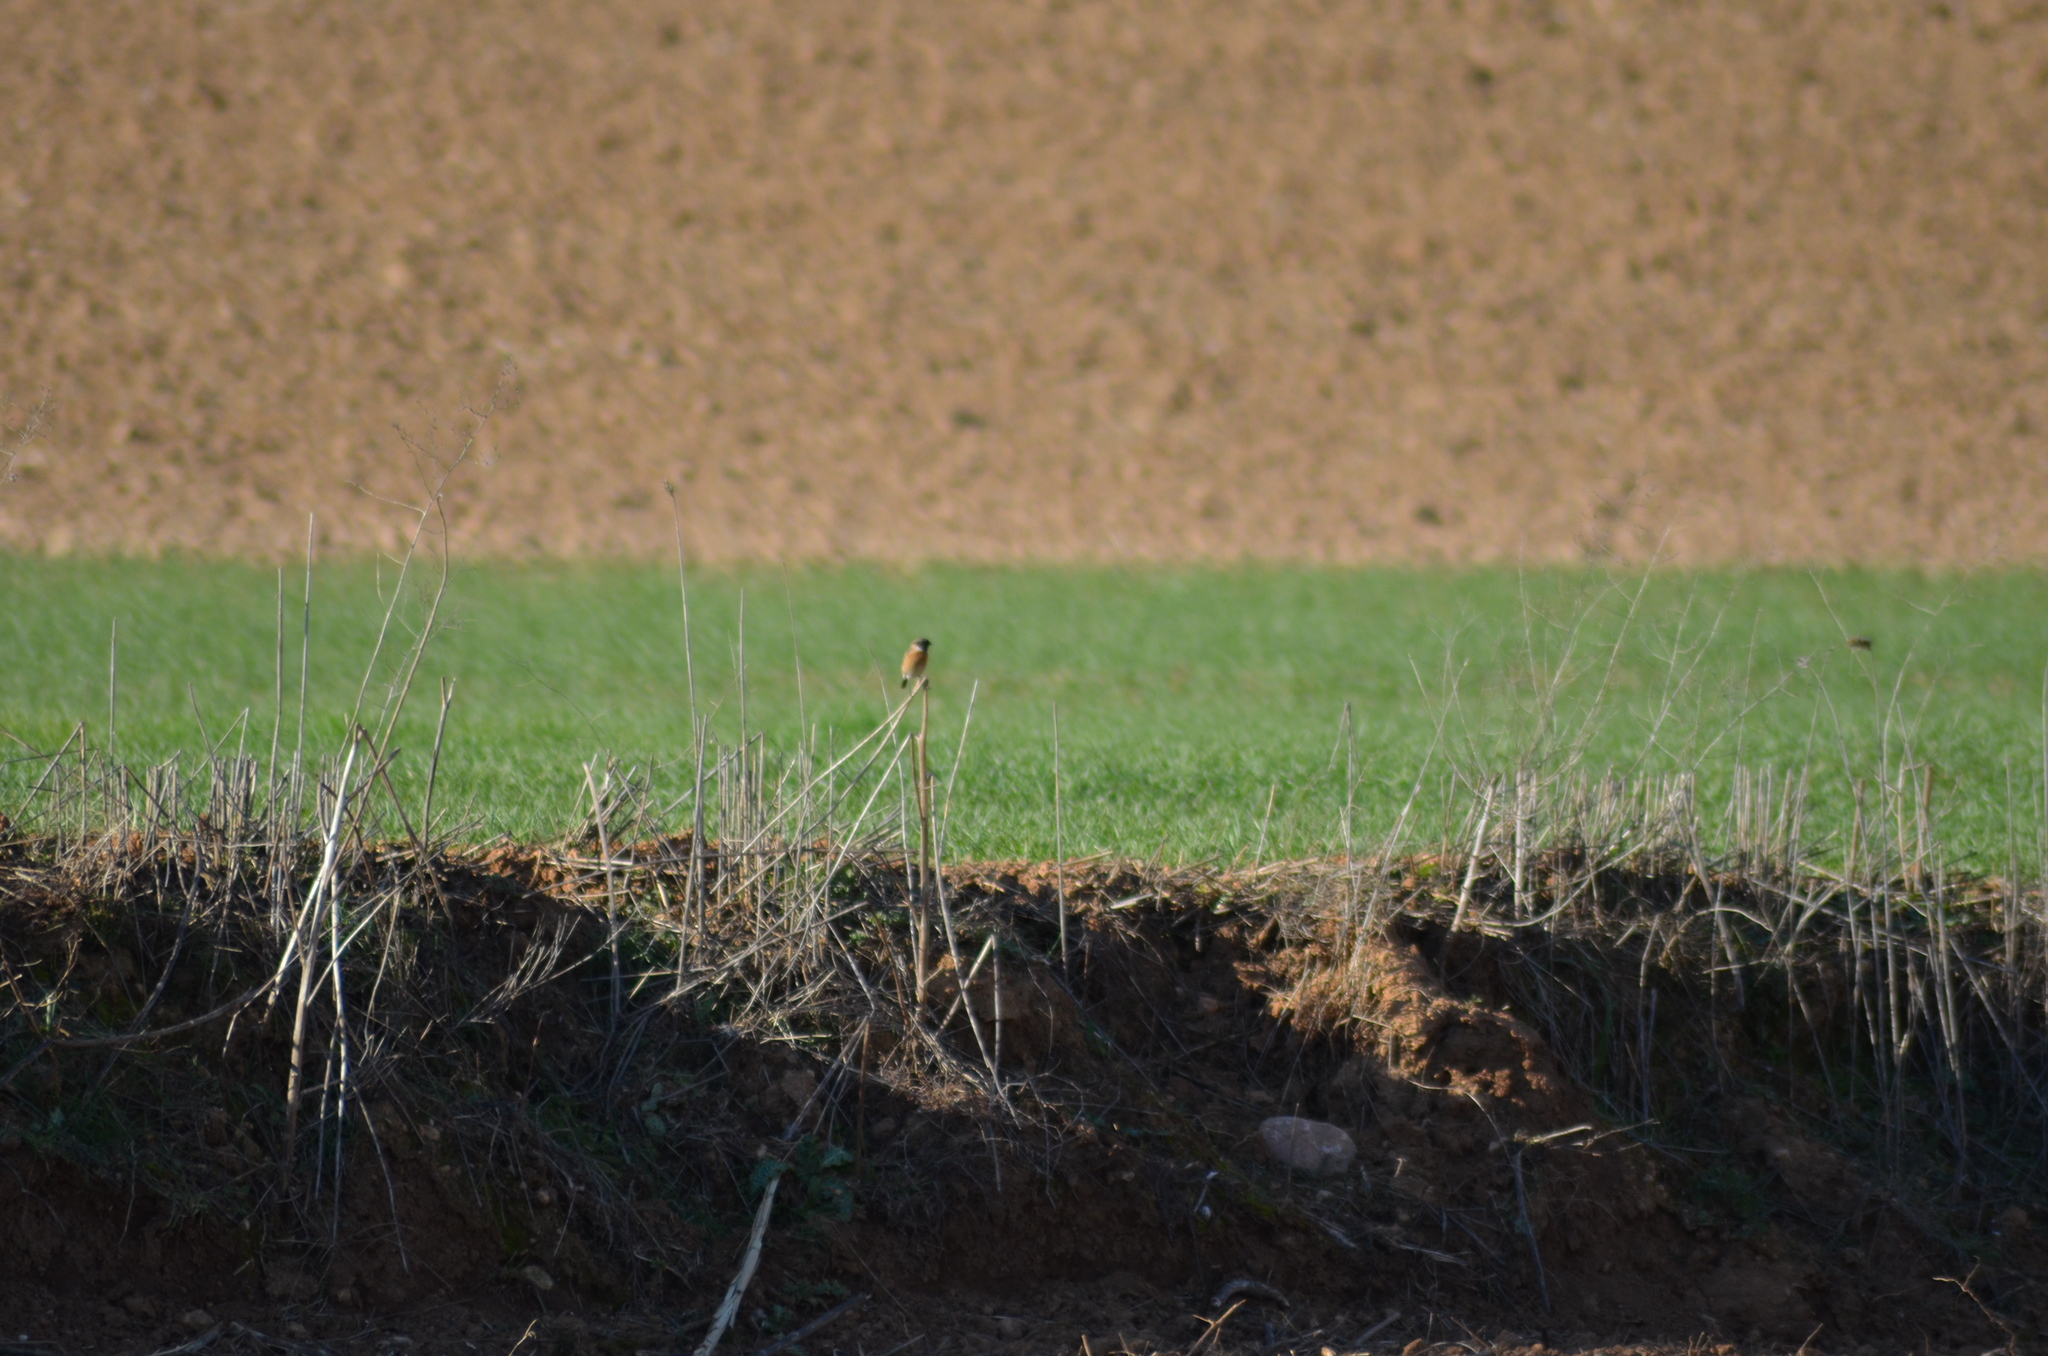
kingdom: Animalia
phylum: Chordata
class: Aves
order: Passeriformes
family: Muscicapidae
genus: Saxicola
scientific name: Saxicola rubicola
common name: European stonechat
